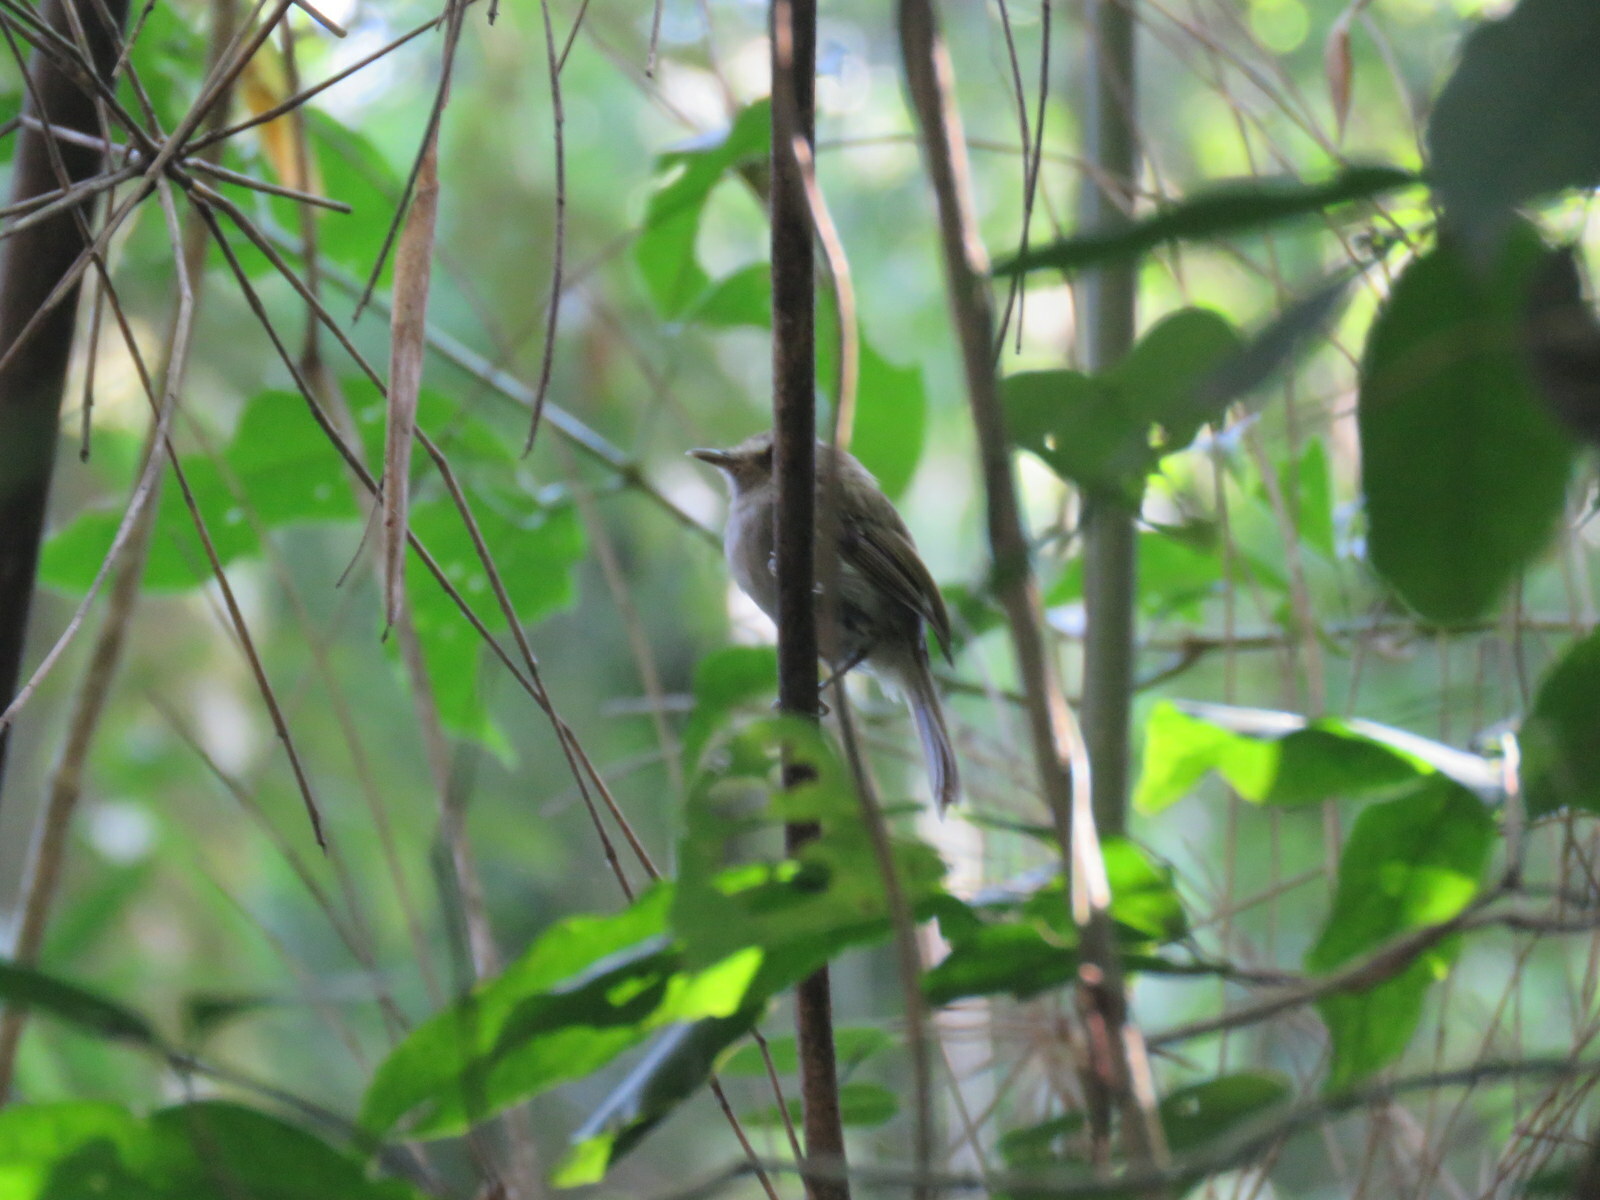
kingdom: Animalia
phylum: Chordata
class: Aves
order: Passeriformes
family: Tyrannidae
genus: Hemitriccus
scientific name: Hemitriccus diops
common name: Drab-breasted bamboo tyrant
